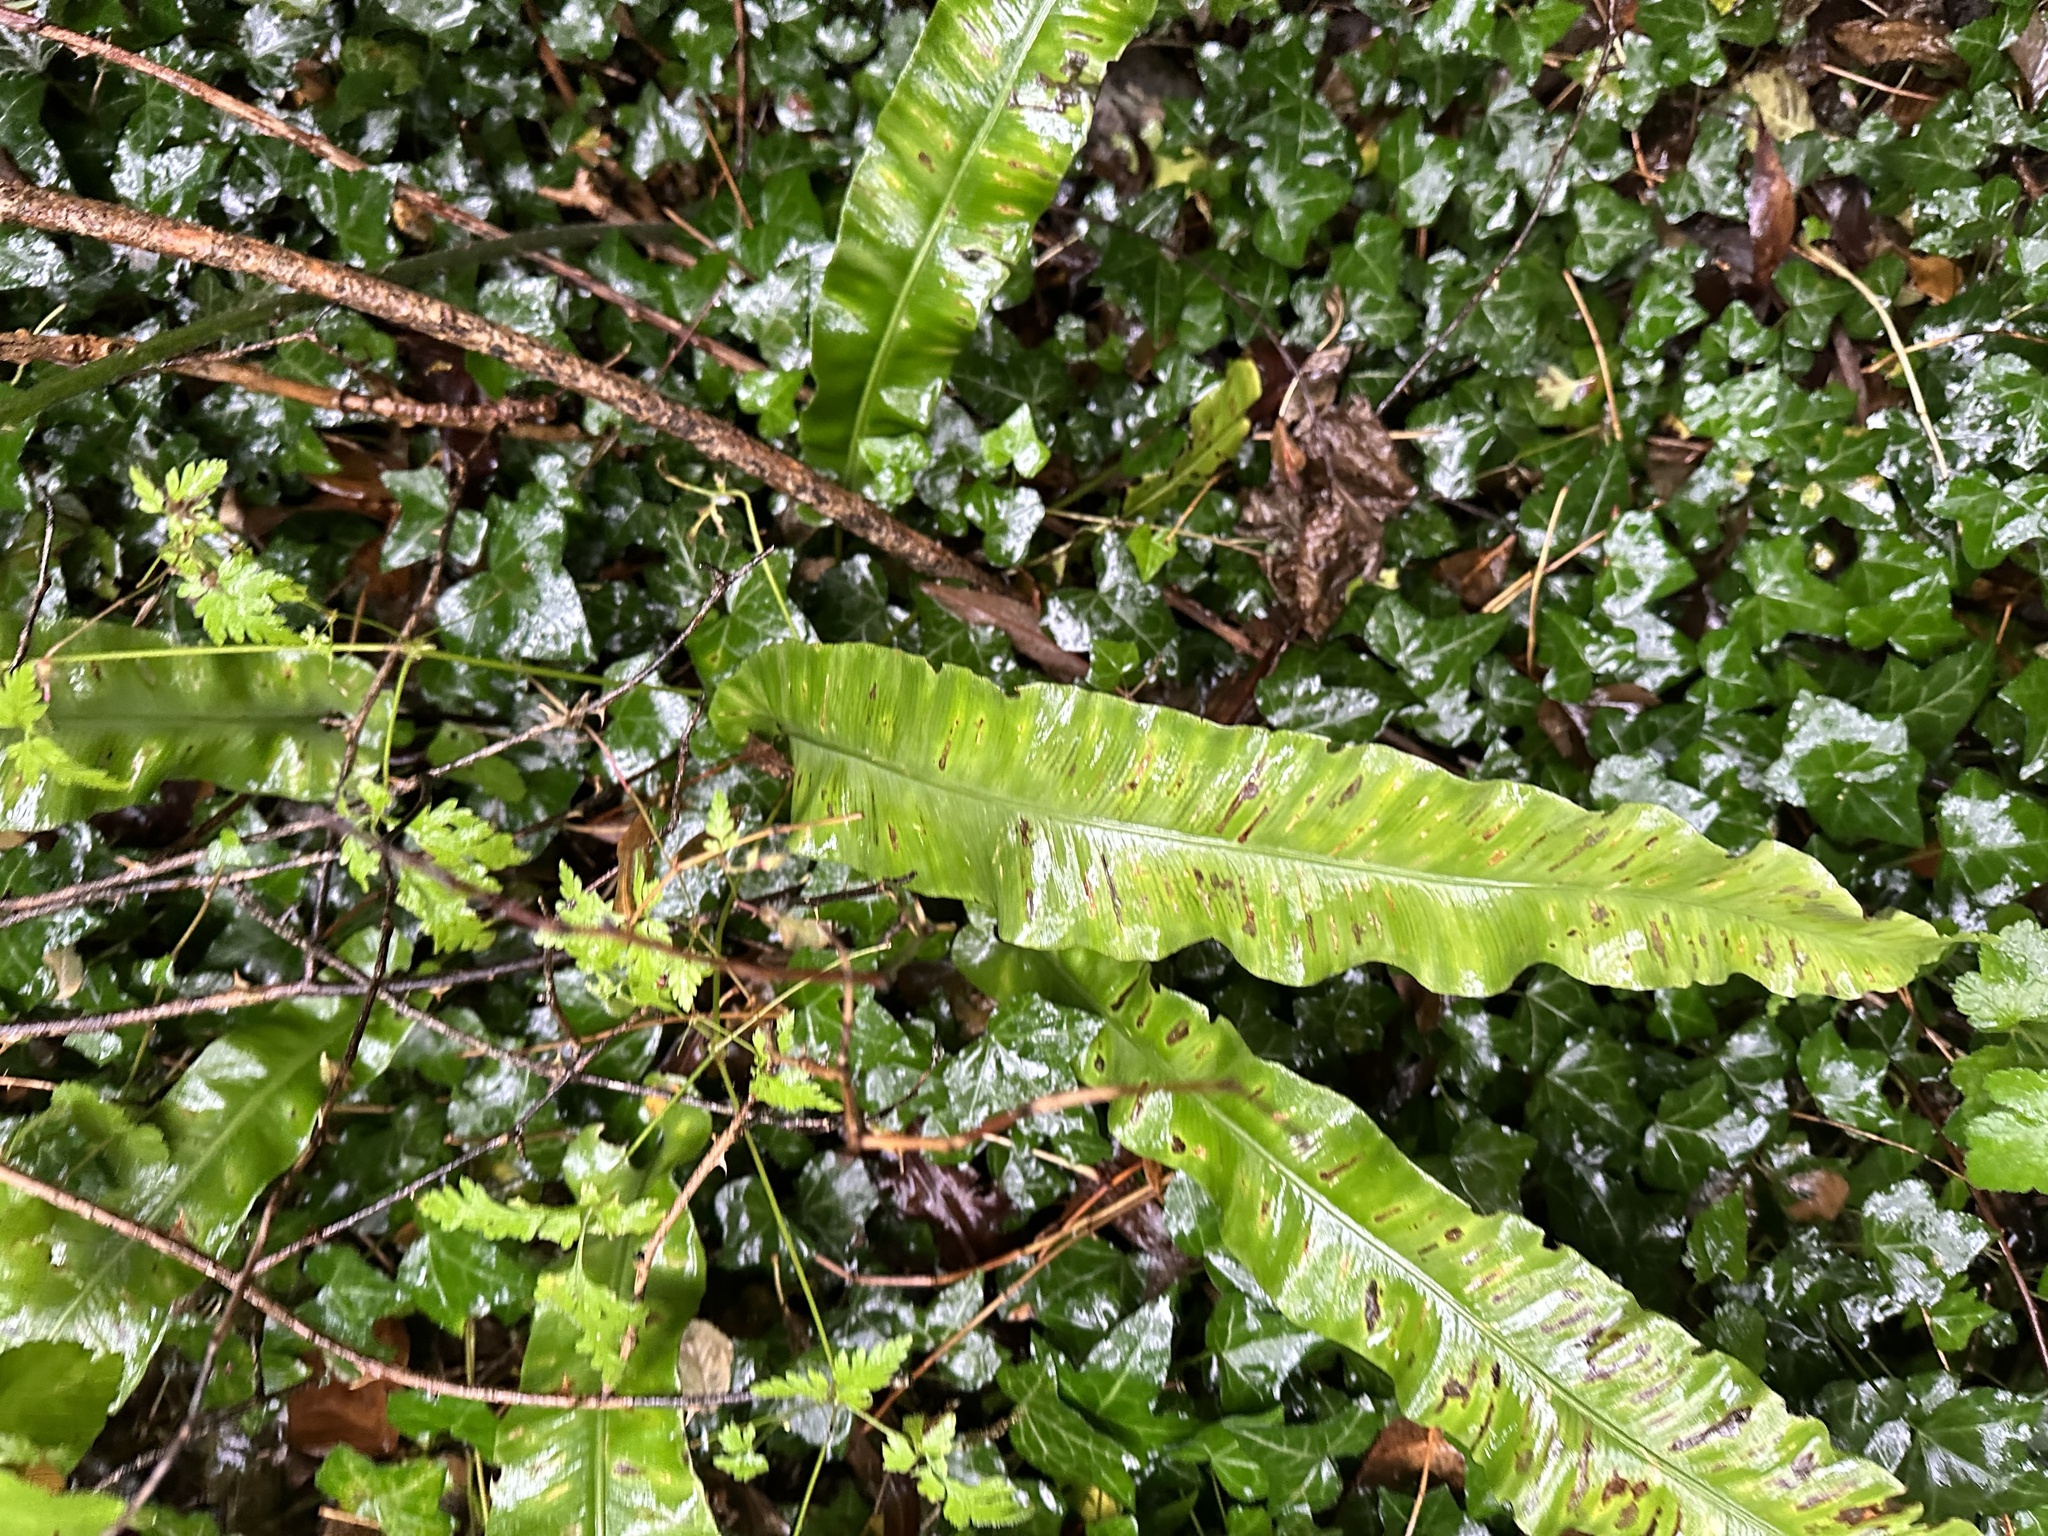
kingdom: Plantae
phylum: Tracheophyta
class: Polypodiopsida
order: Polypodiales
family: Aspleniaceae
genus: Asplenium
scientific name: Asplenium scolopendrium
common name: Hart's-tongue fern
